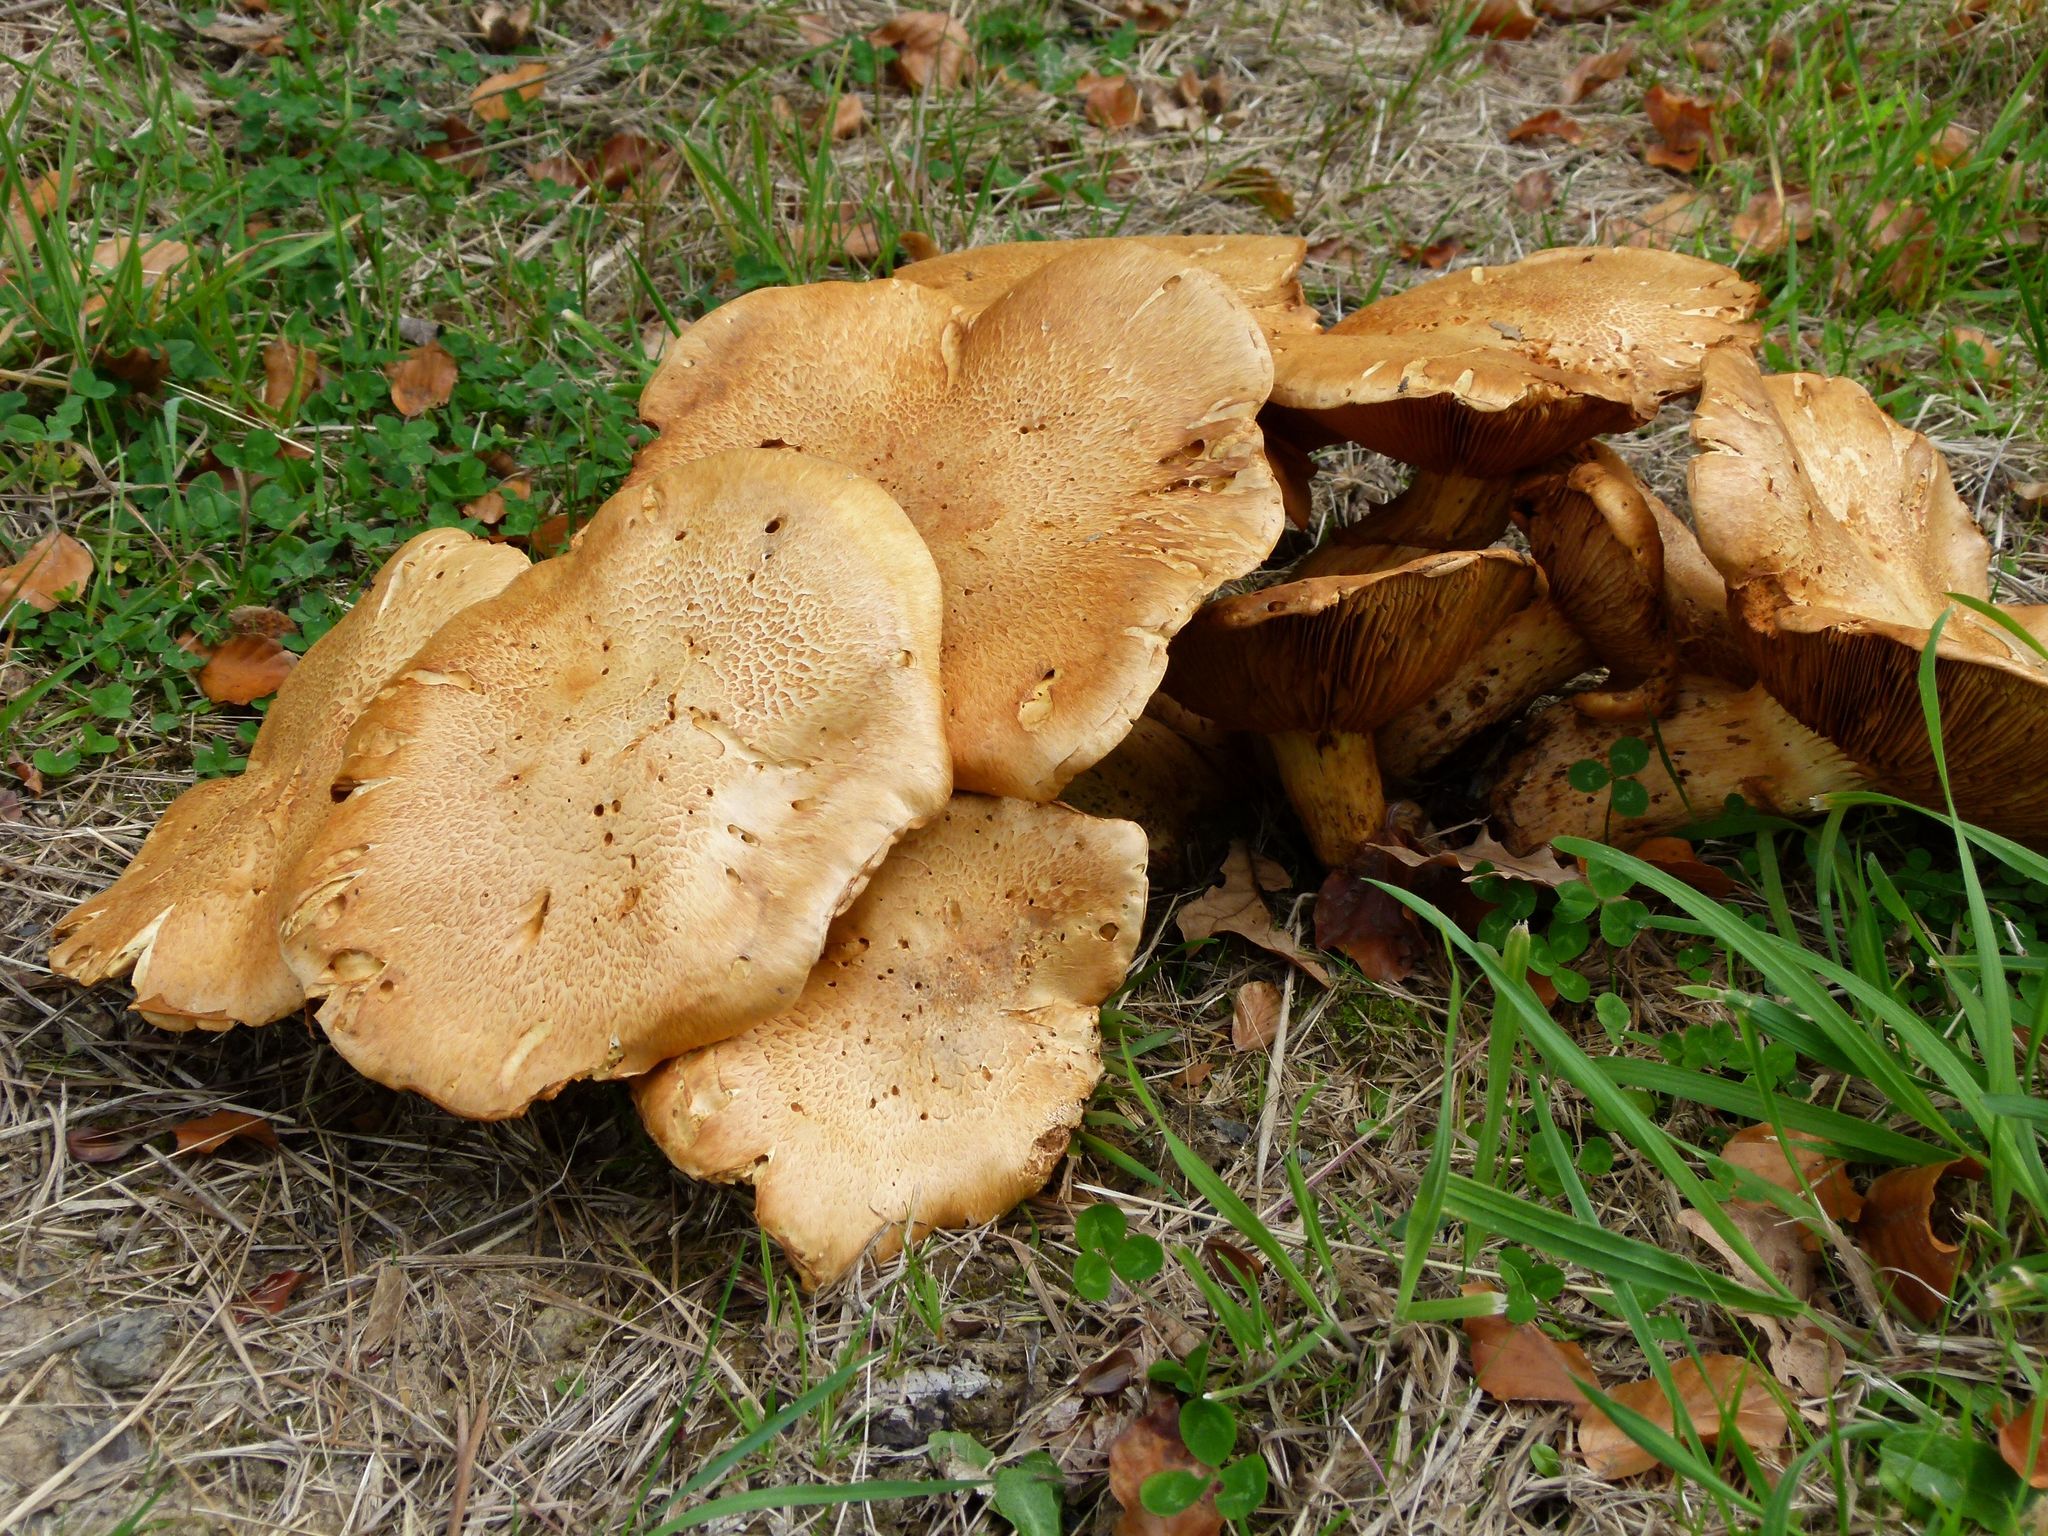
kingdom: Fungi
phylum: Basidiomycota
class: Agaricomycetes
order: Agaricales
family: Hymenogastraceae
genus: Gymnopilus
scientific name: Gymnopilus junonius
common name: Spectacular rustgill
